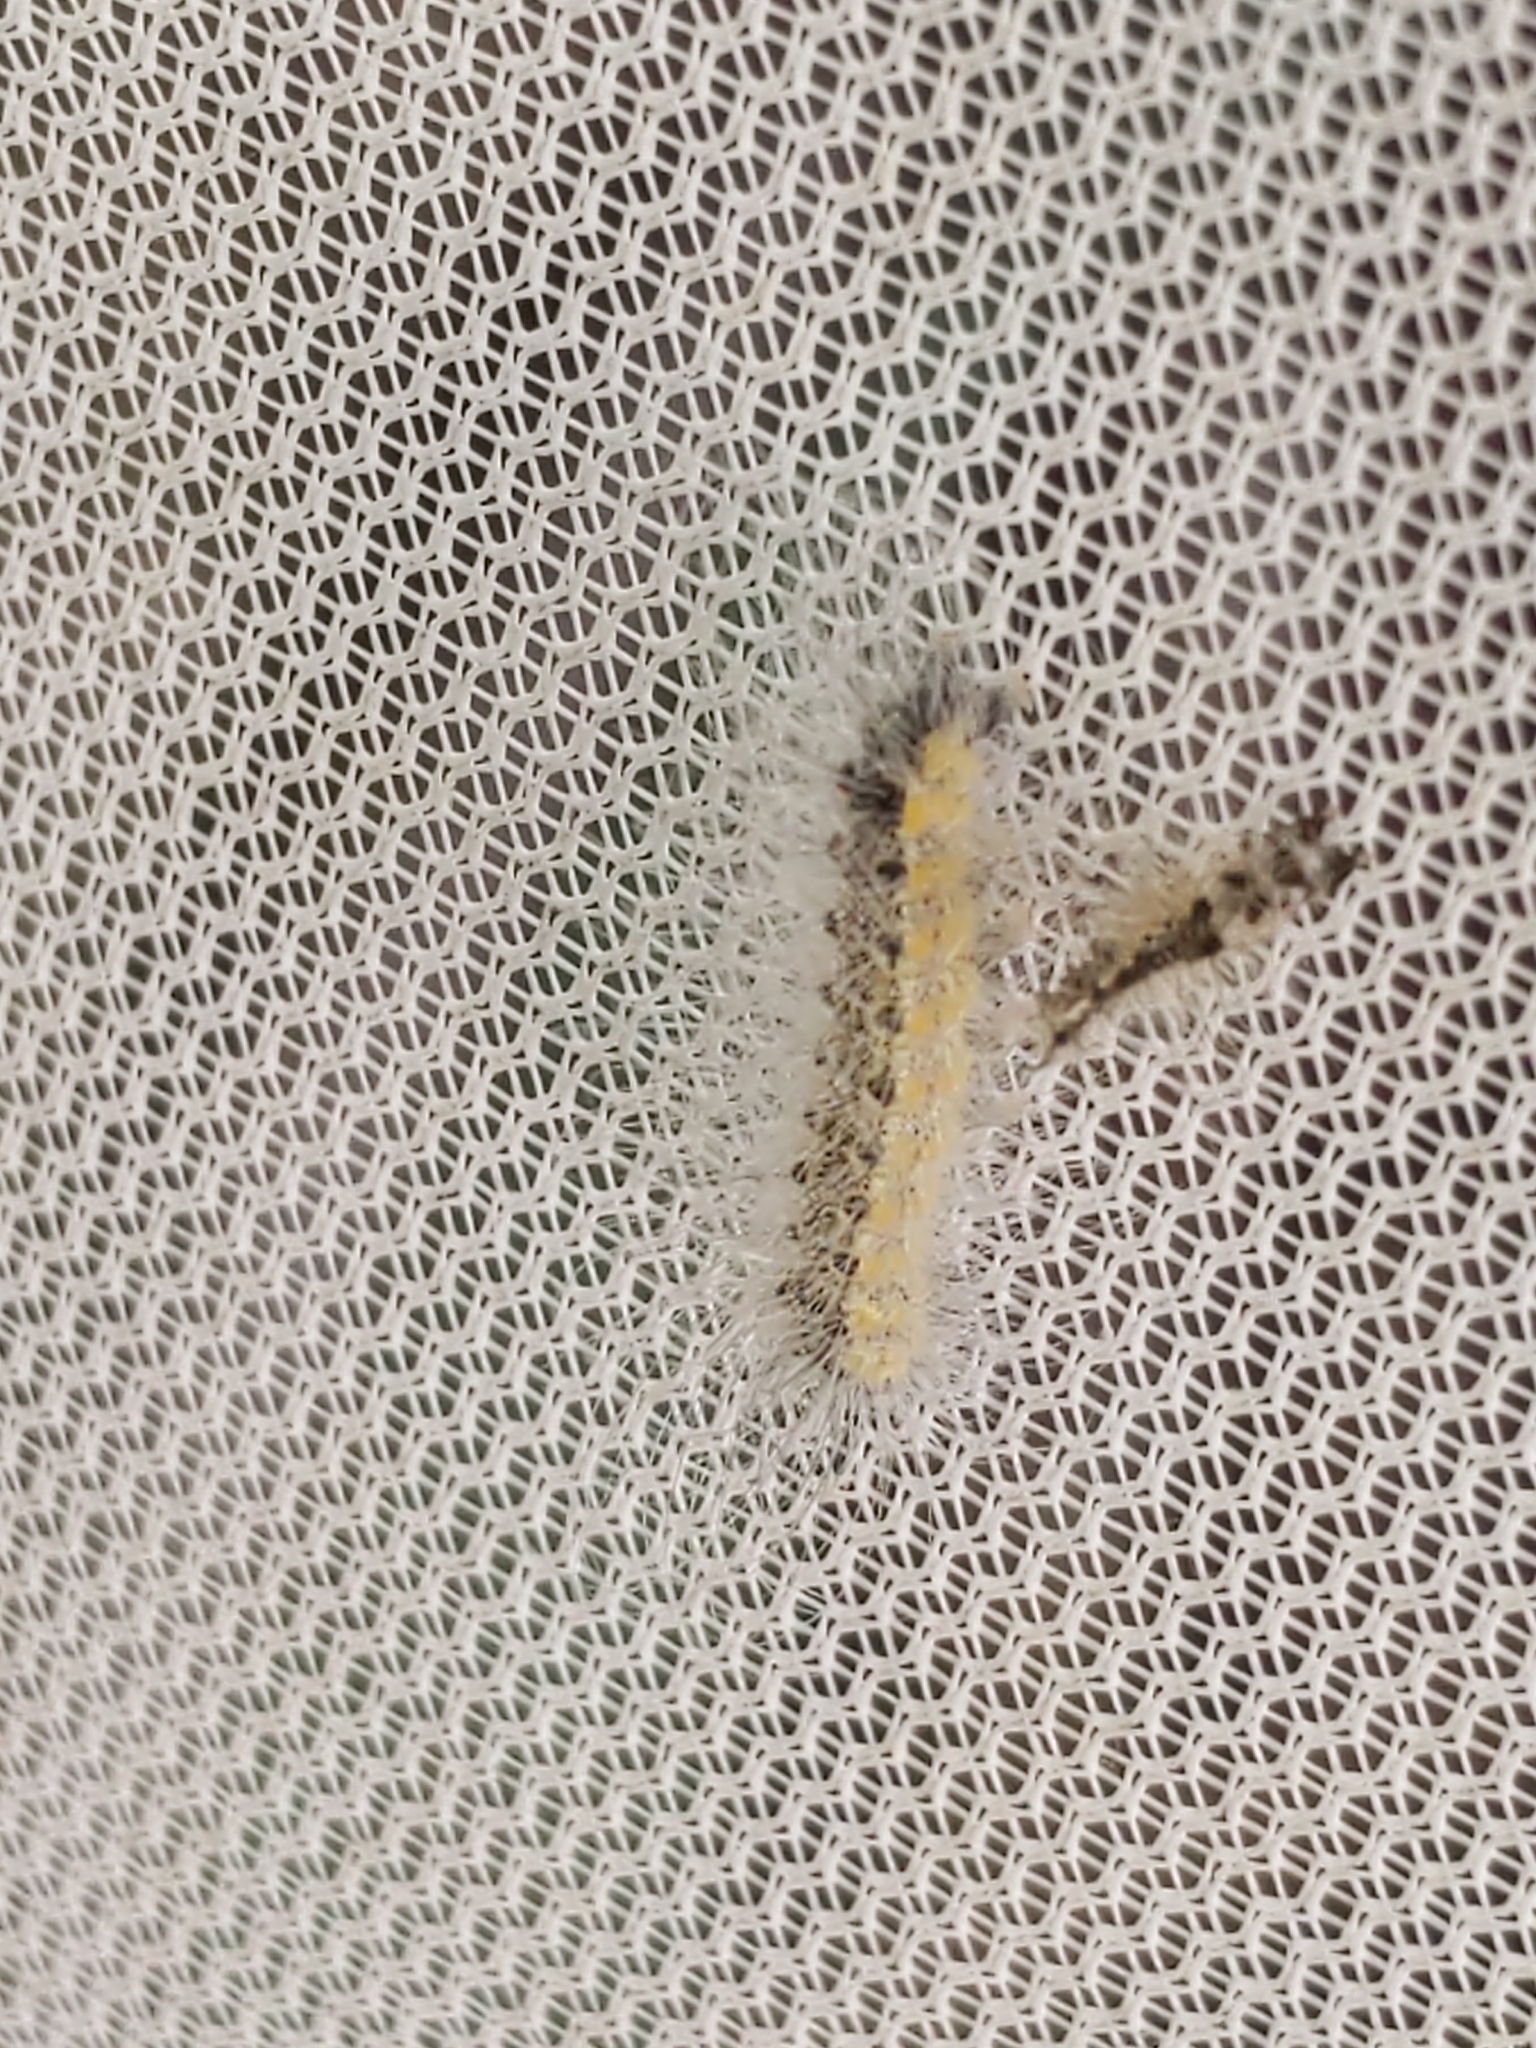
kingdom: Animalia
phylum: Arthropoda
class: Insecta
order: Lepidoptera
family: Erebidae
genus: Hyphantria
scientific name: Hyphantria cunea
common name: American white moth
